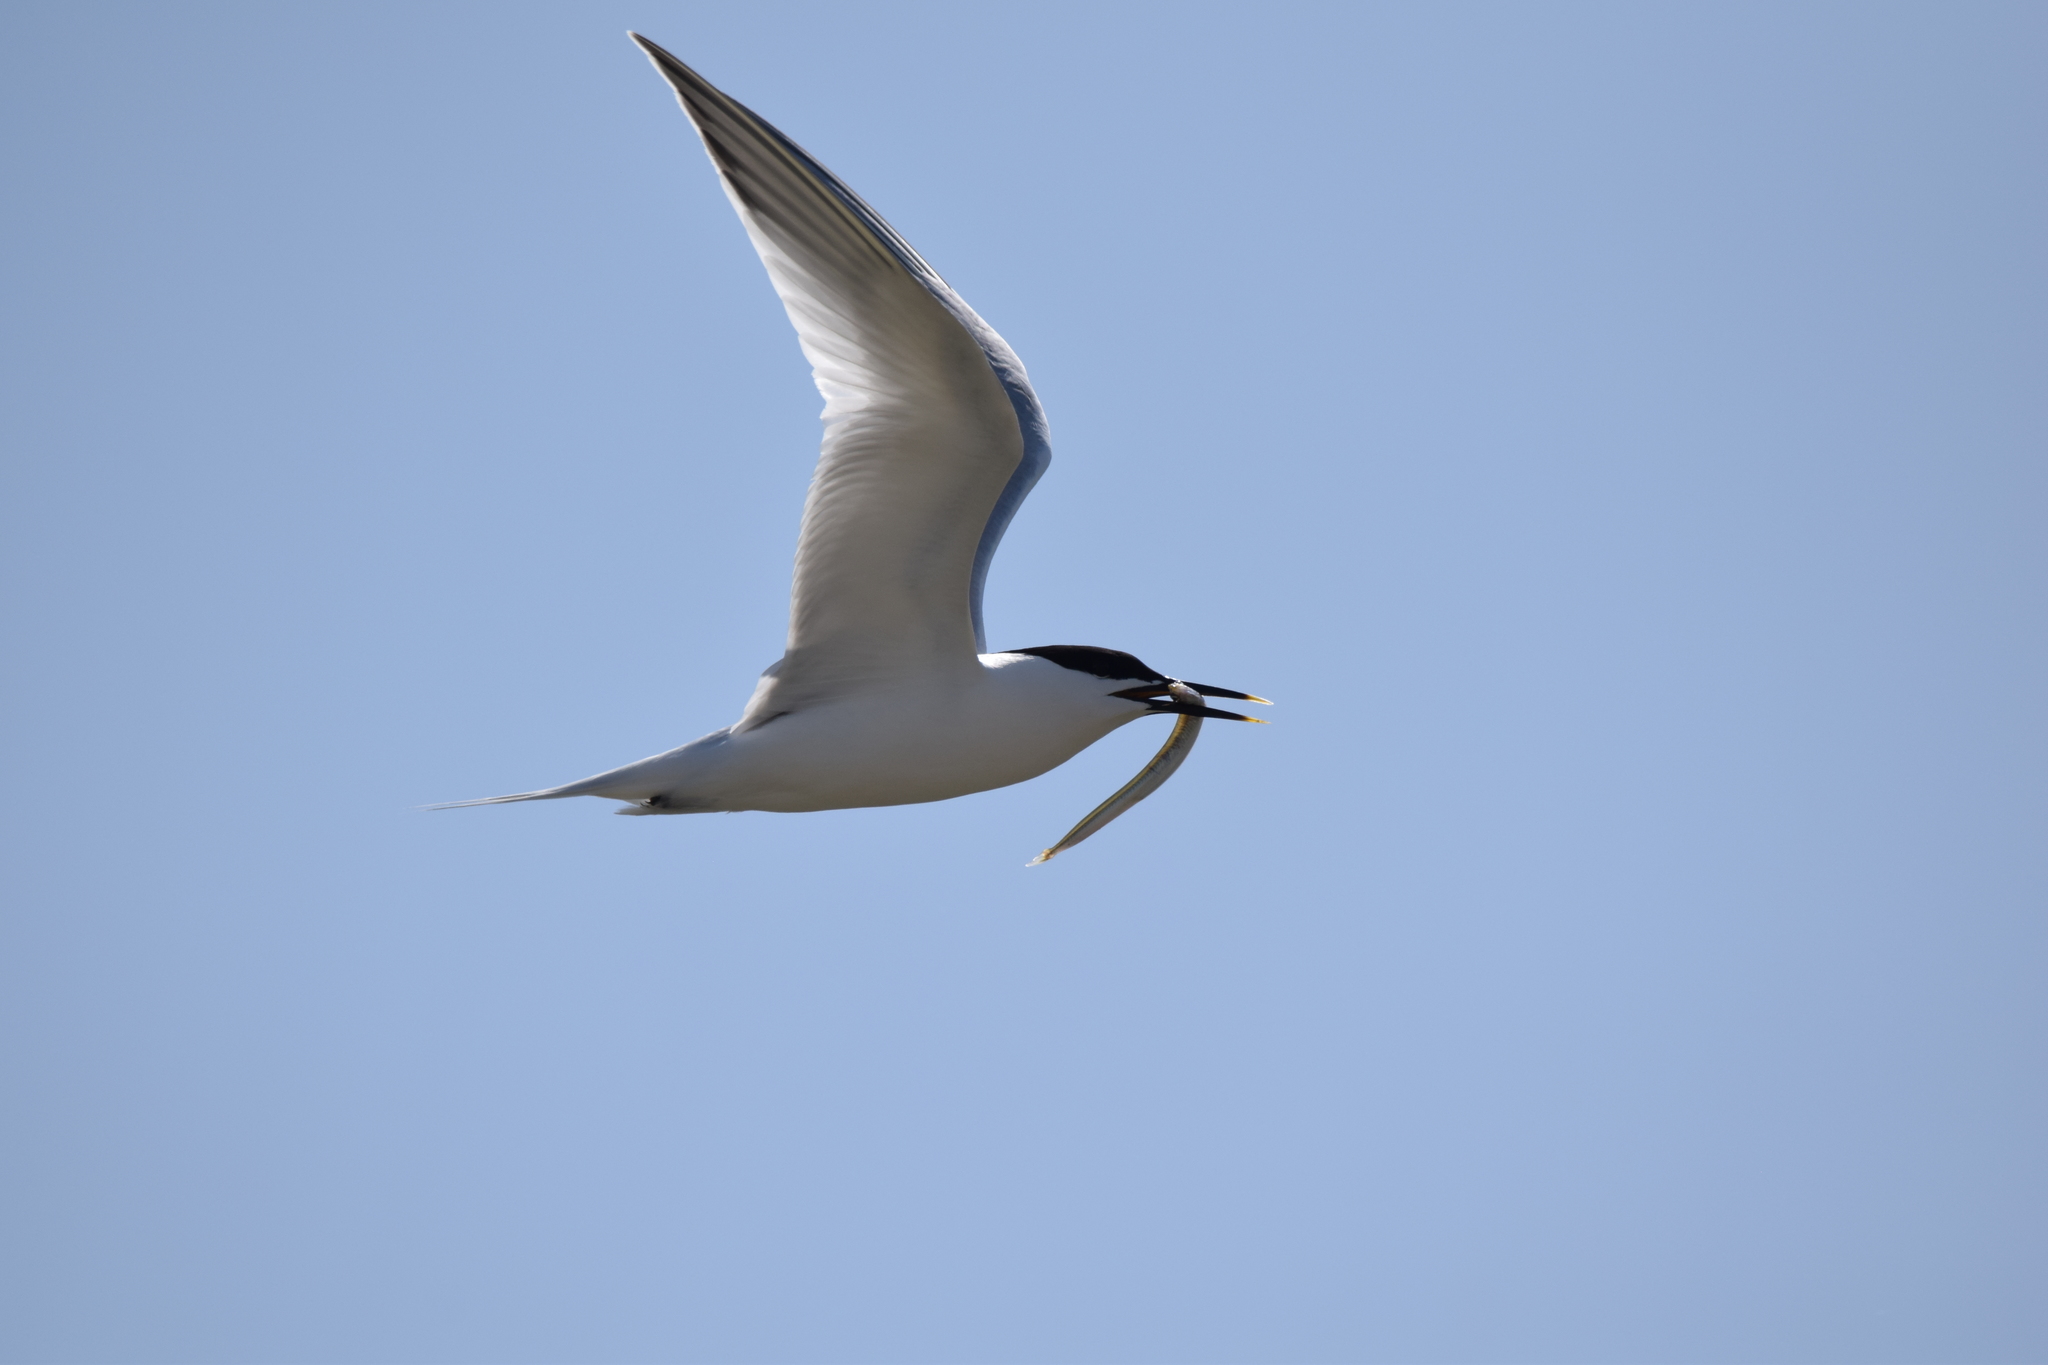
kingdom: Animalia
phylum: Chordata
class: Aves
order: Charadriiformes
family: Laridae
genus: Thalasseus
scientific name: Thalasseus sandvicensis
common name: Sandwich tern
